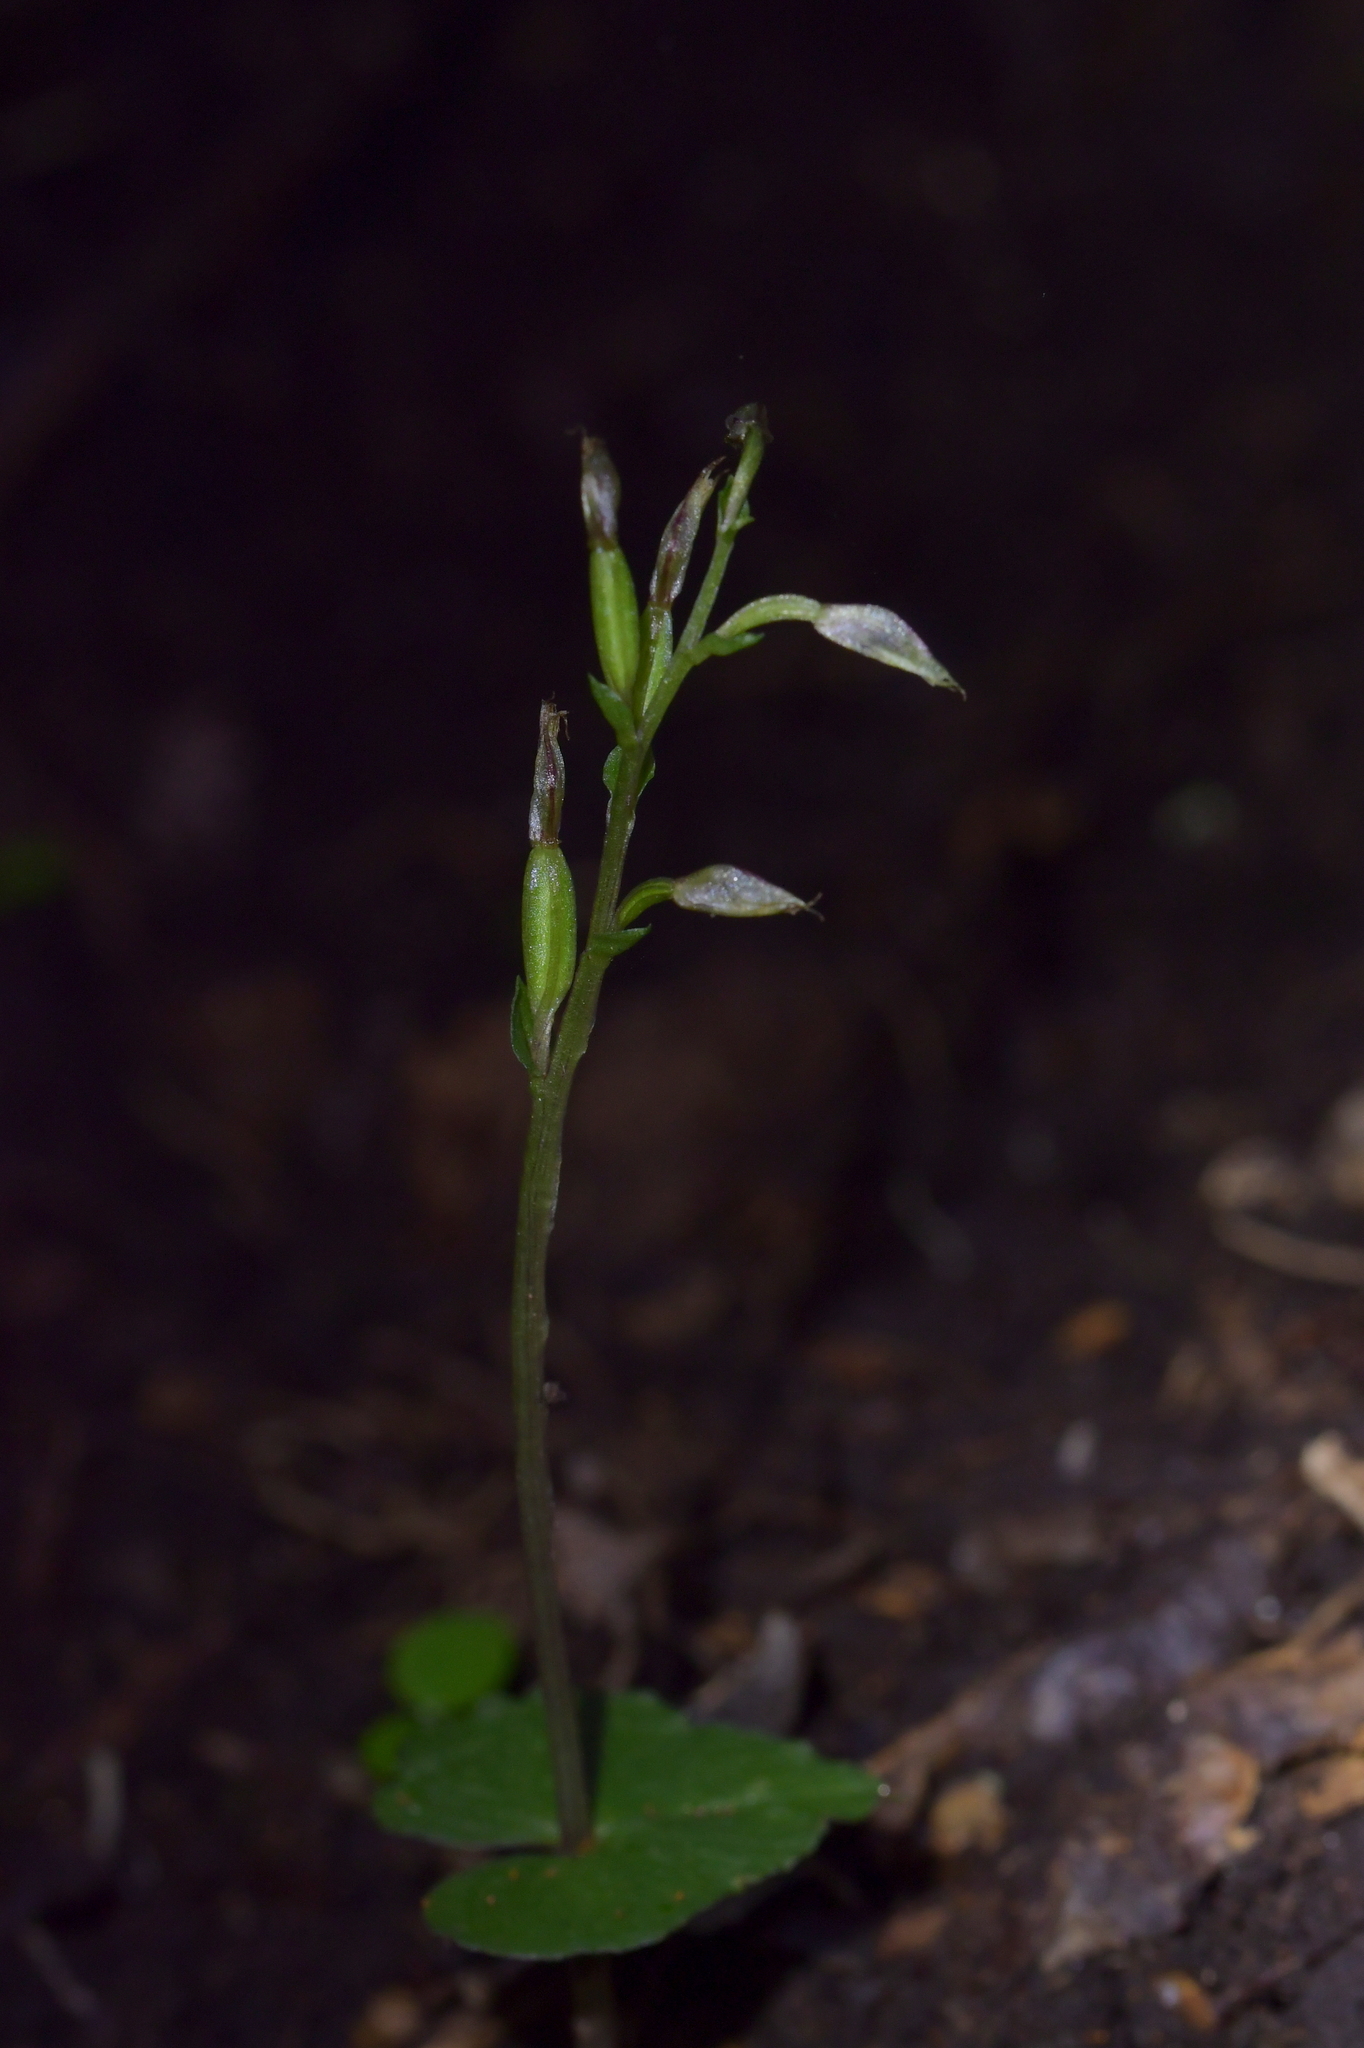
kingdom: Plantae
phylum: Tracheophyta
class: Liliopsida
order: Asparagales
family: Orchidaceae
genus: Acianthus
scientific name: Acianthus sinclairii
